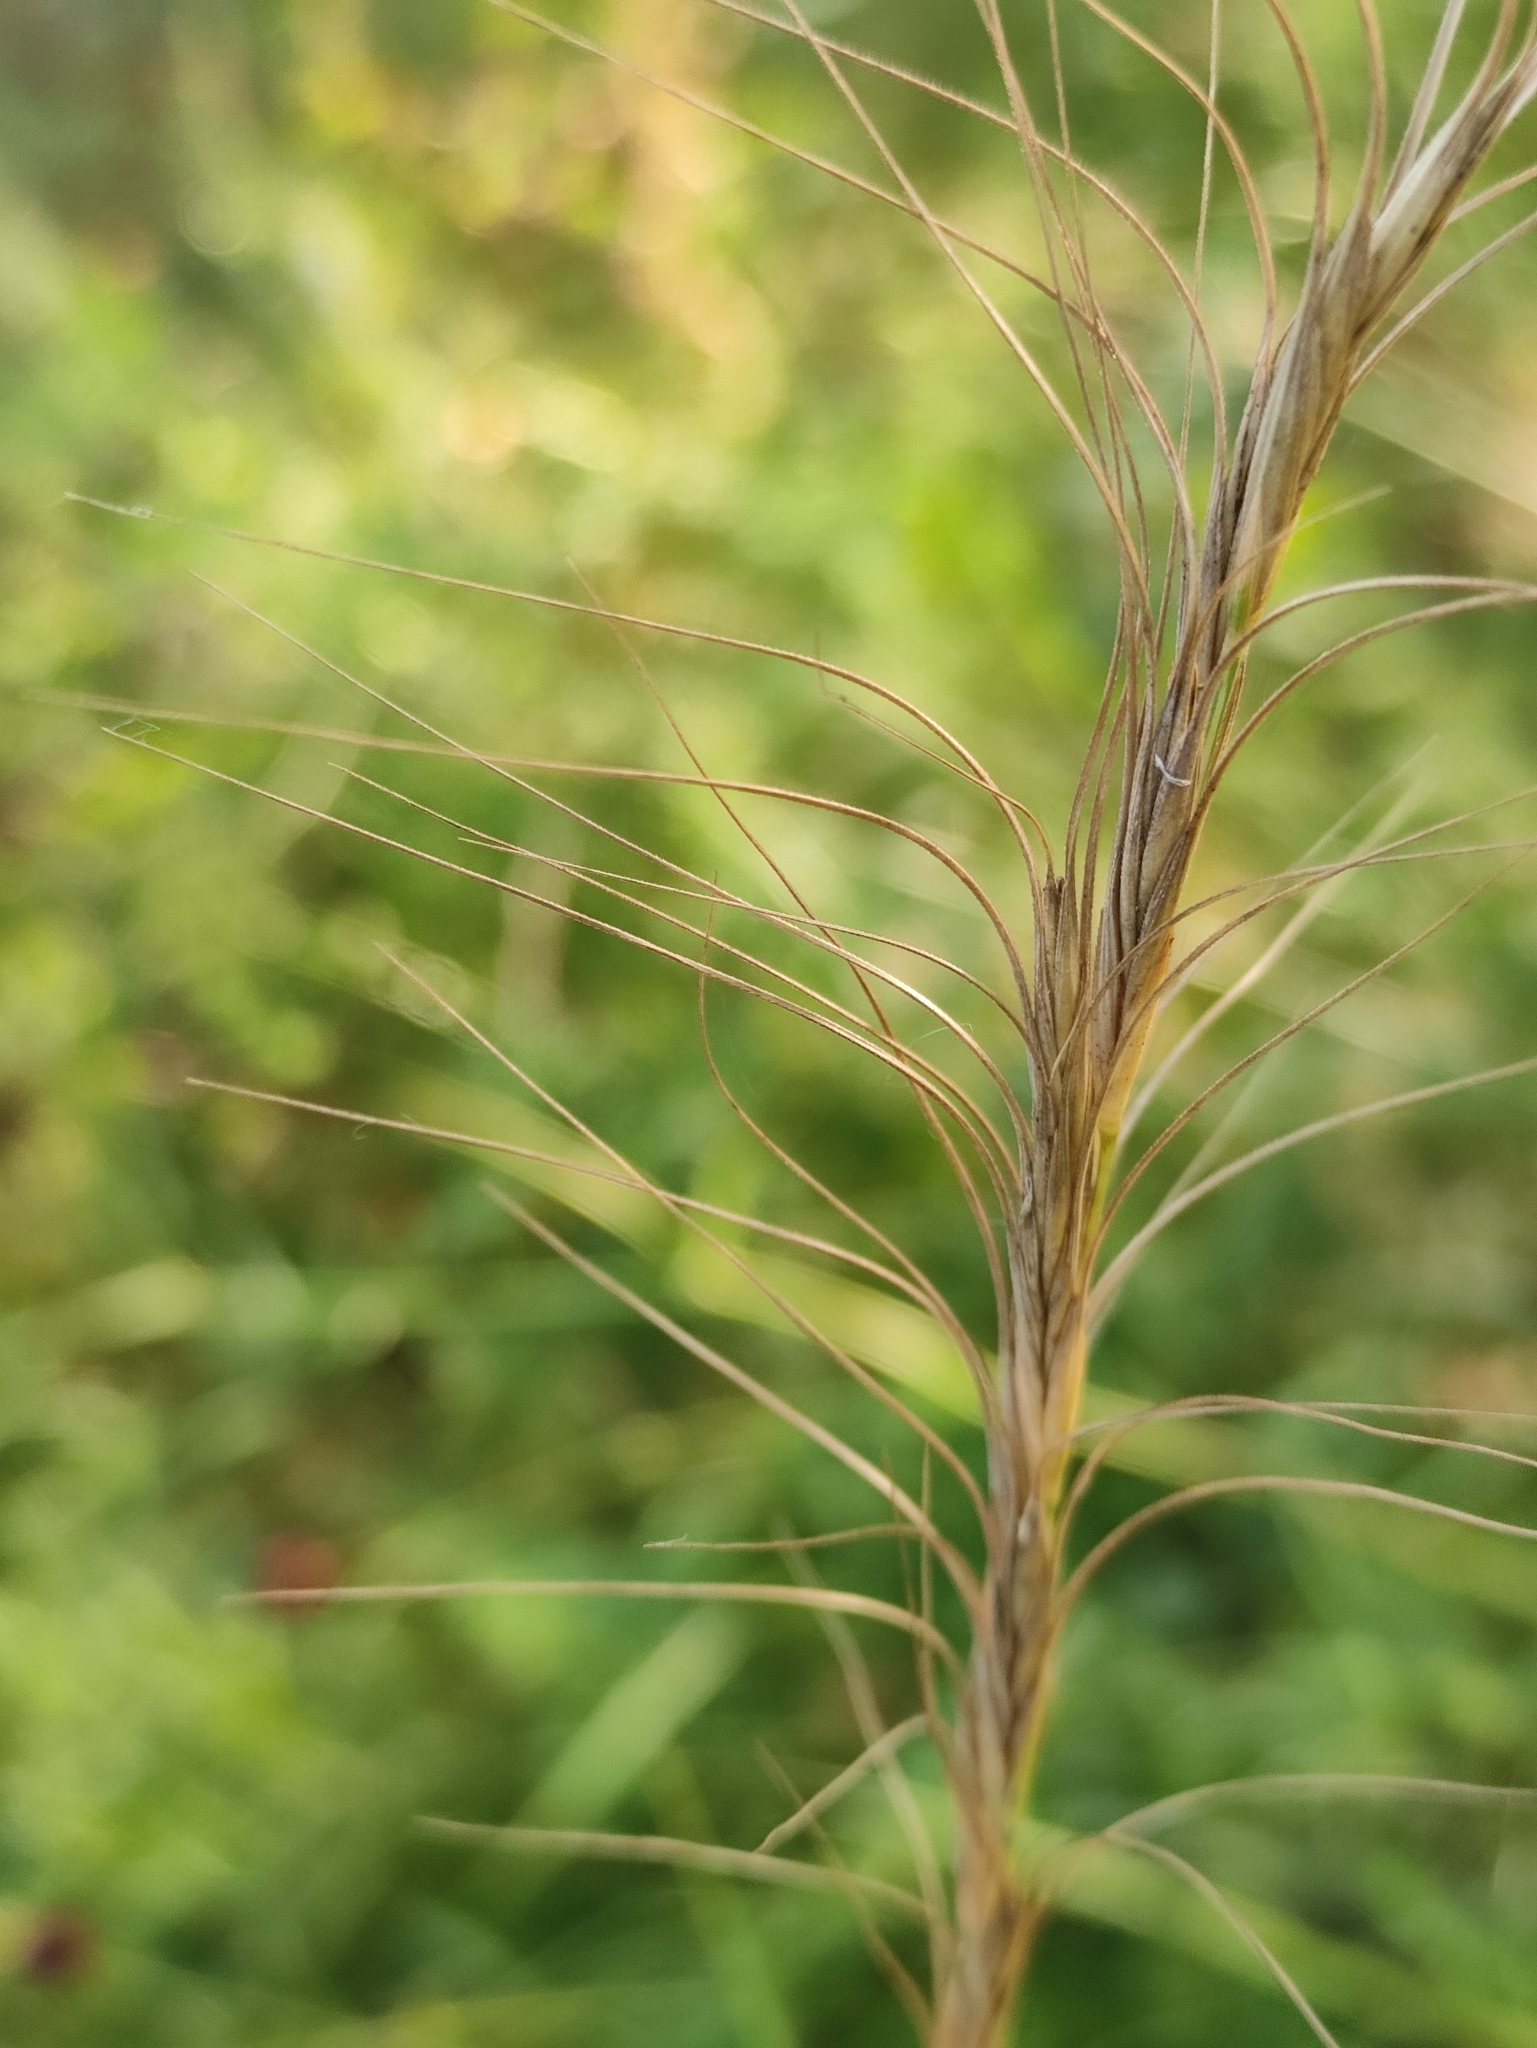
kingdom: Plantae
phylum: Tracheophyta
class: Liliopsida
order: Poales
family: Poaceae
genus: Elymus
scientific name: Elymus gmelinii
